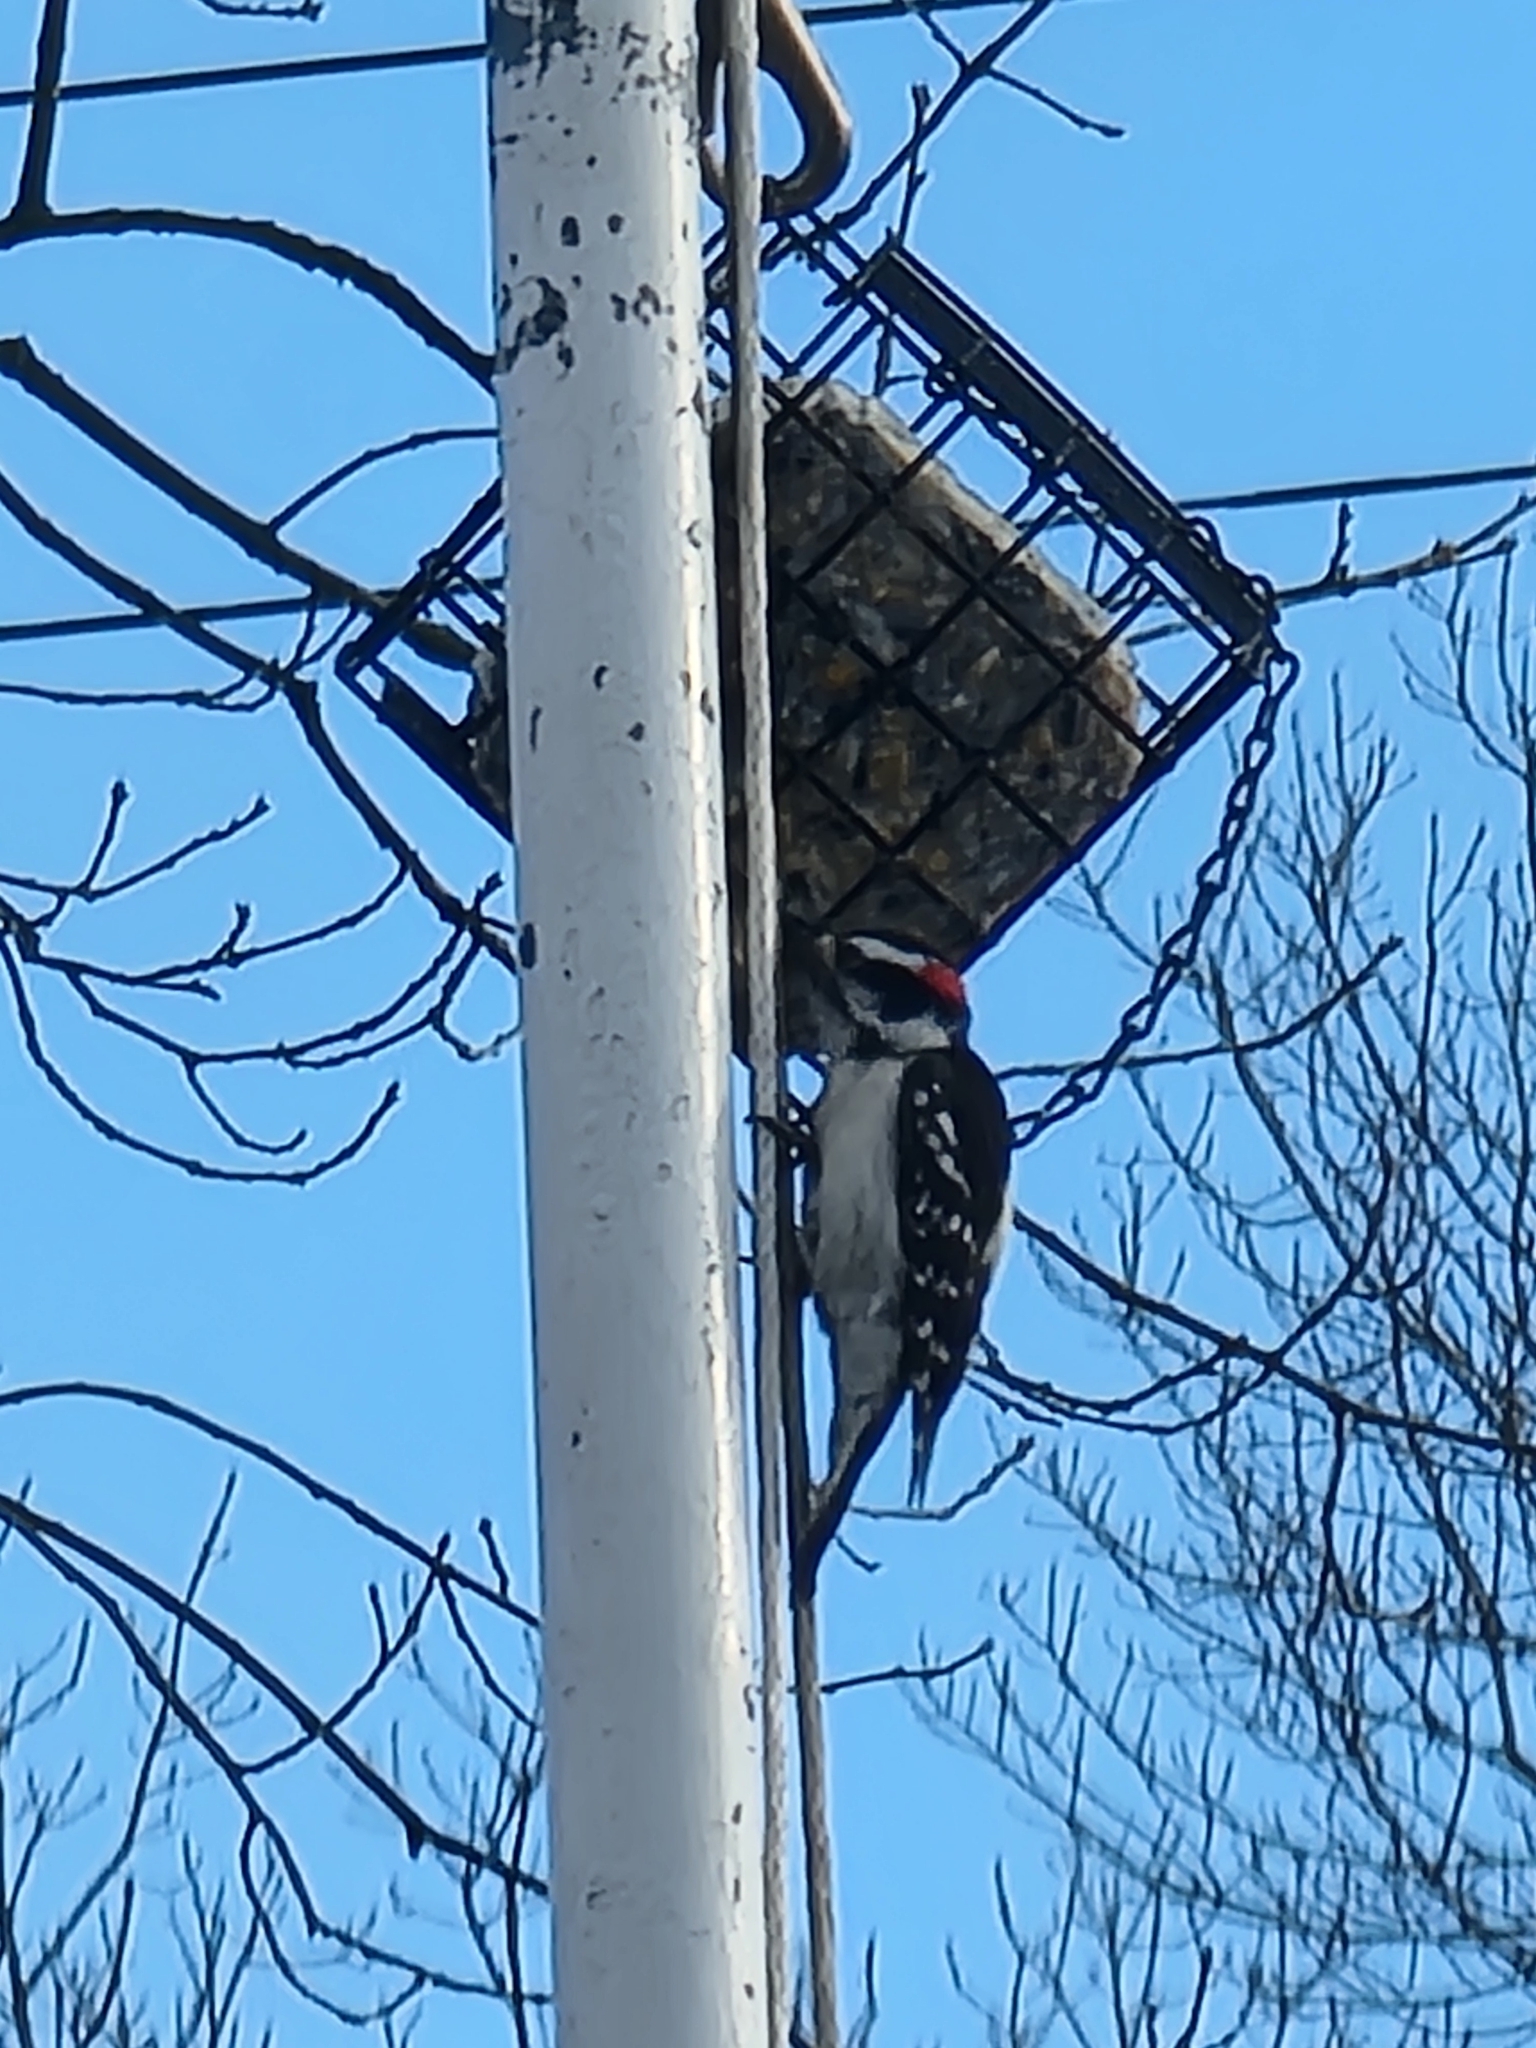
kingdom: Animalia
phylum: Chordata
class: Aves
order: Piciformes
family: Picidae
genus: Dryobates
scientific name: Dryobates pubescens
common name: Downy woodpecker
